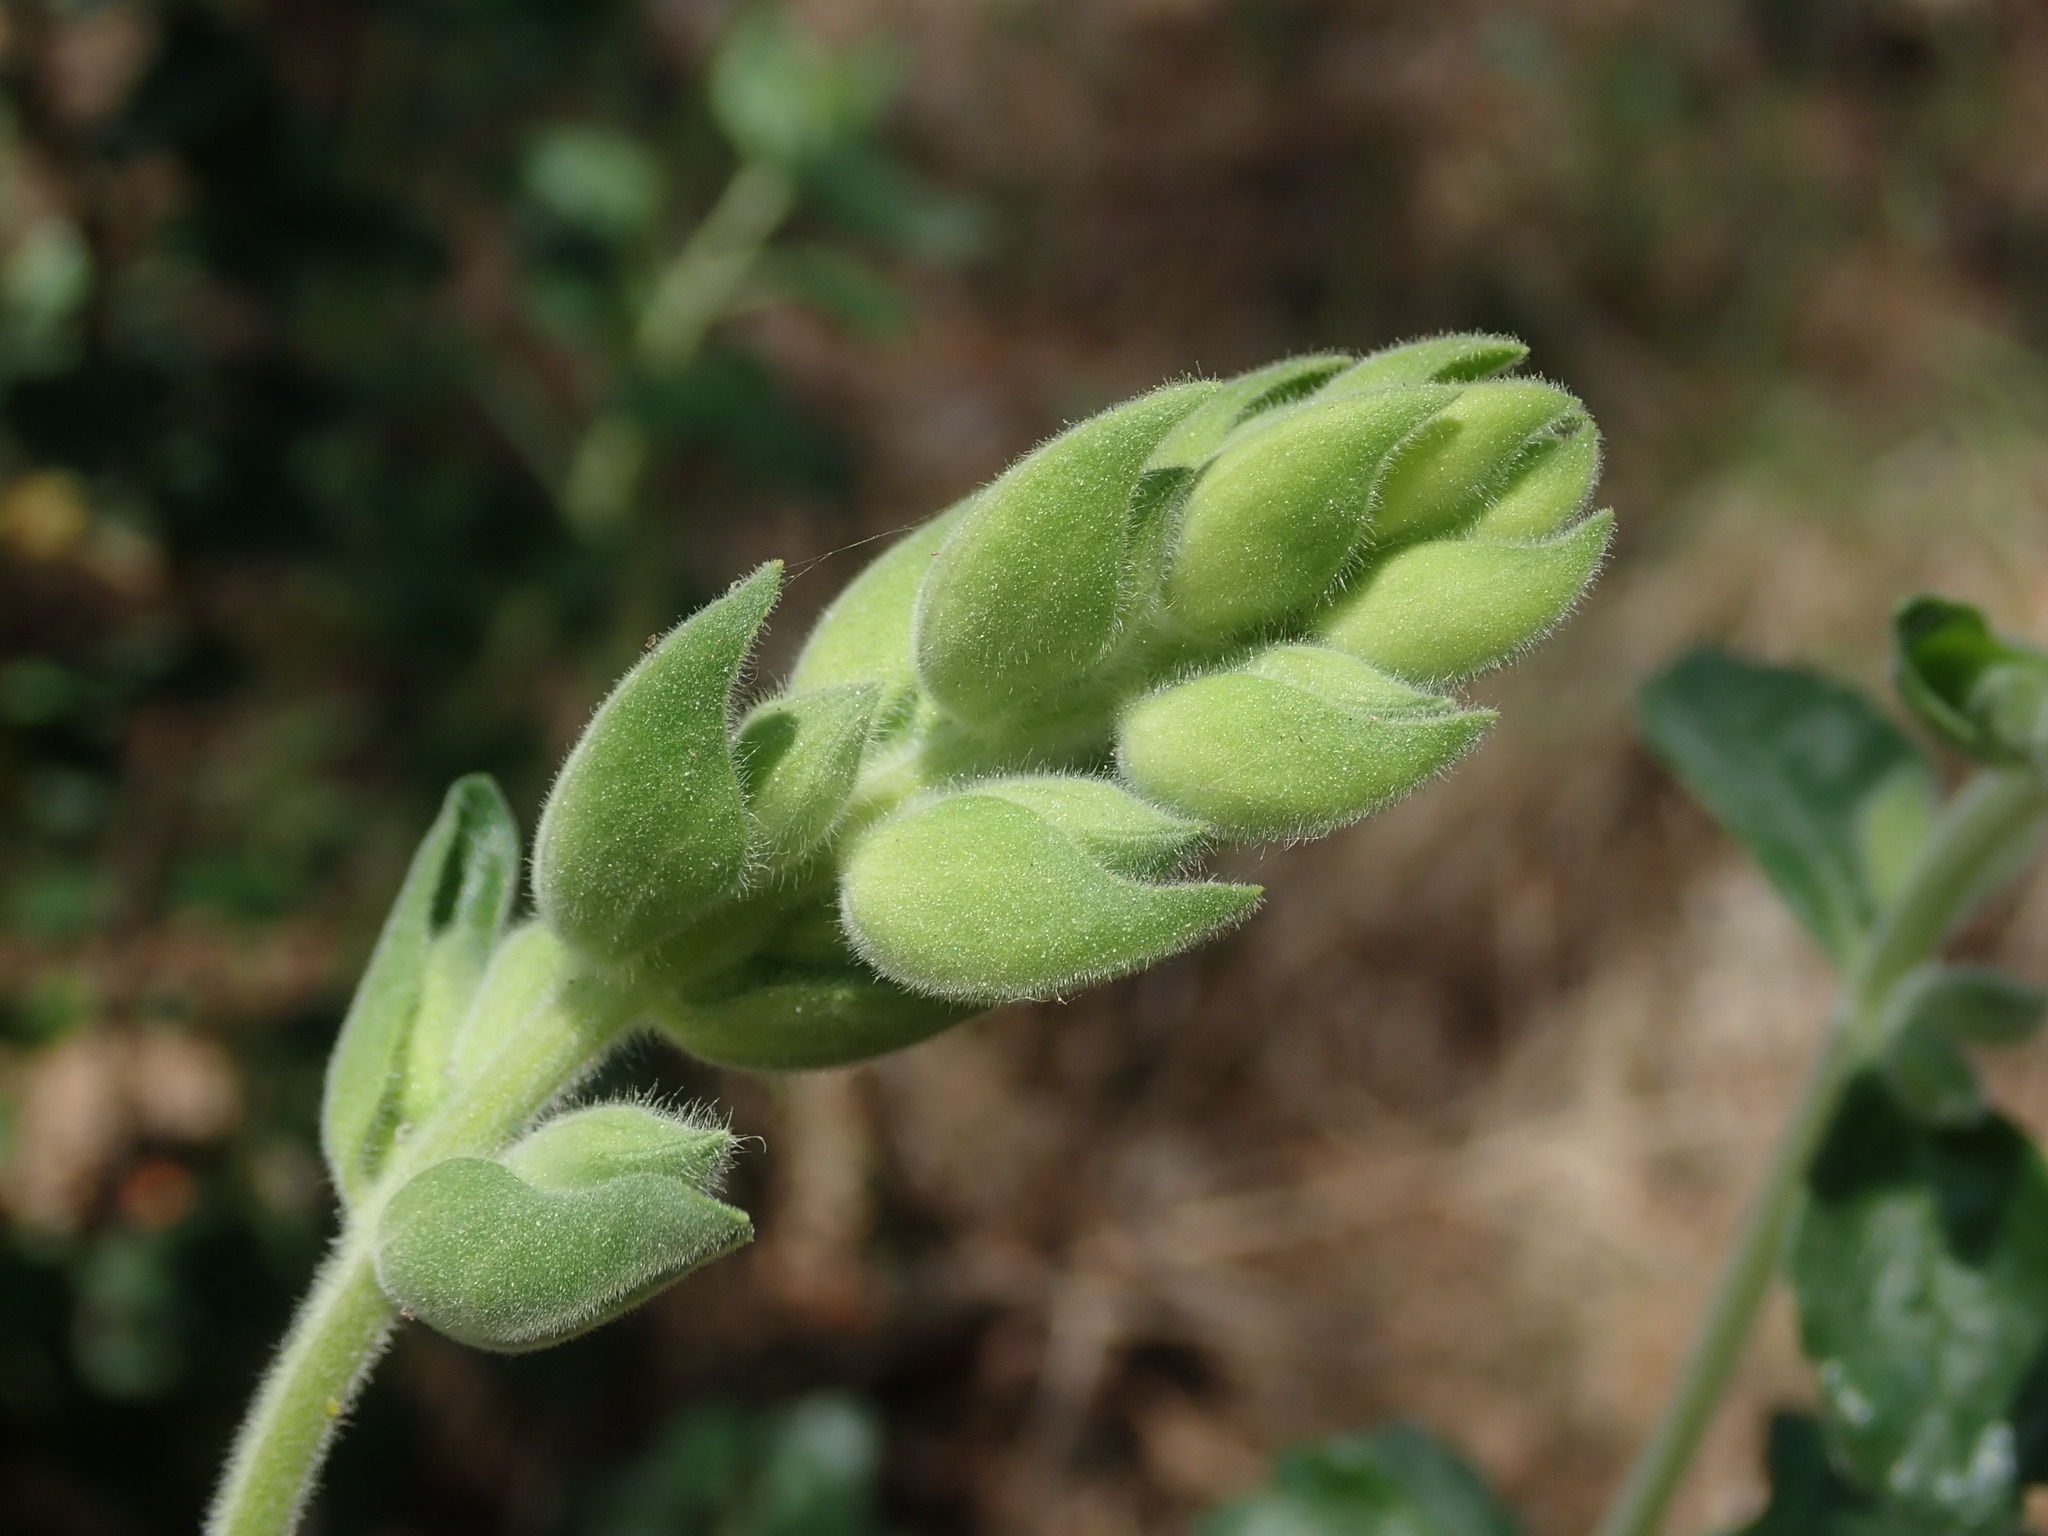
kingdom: Plantae
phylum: Tracheophyta
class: Magnoliopsida
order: Lamiales
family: Lamiaceae
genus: Teucrium
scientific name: Teucrium flavum
